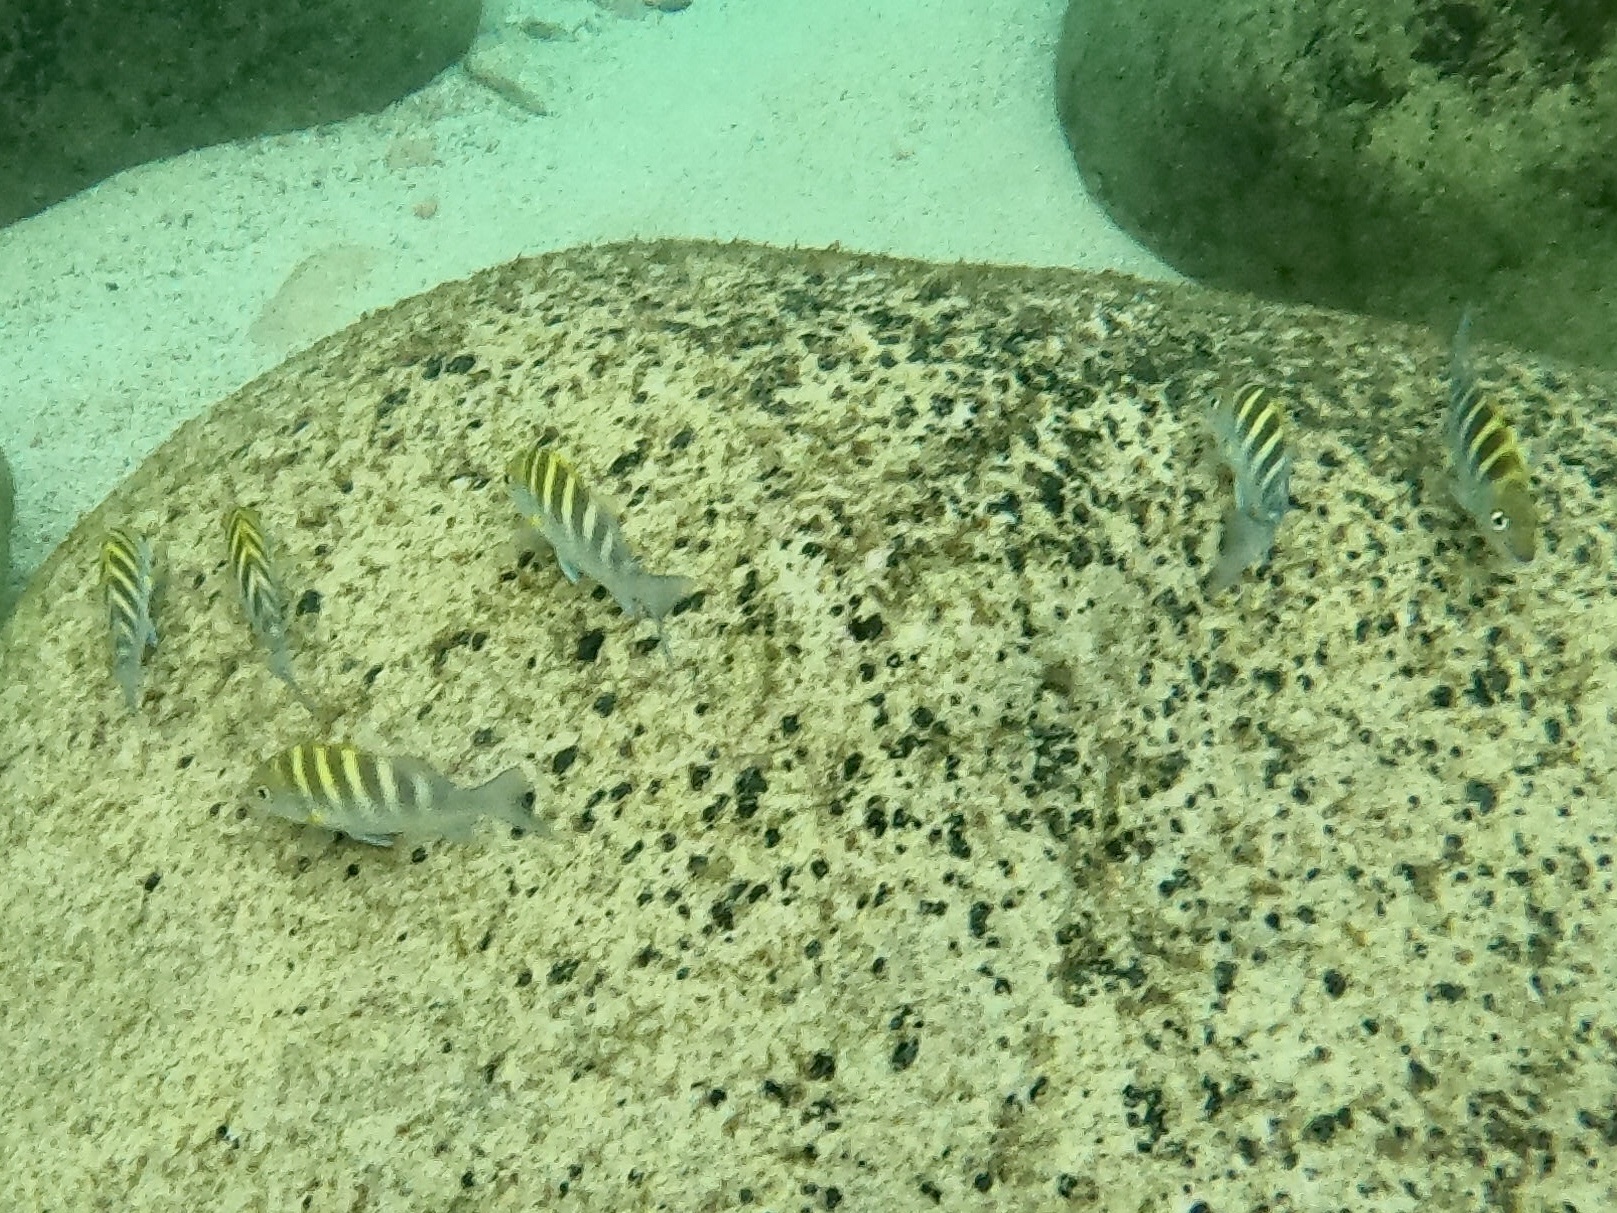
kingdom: Animalia
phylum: Chordata
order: Perciformes
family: Haemulidae
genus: Haemulon
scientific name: Haemulon sexfasciatum
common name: Graybar grunt
